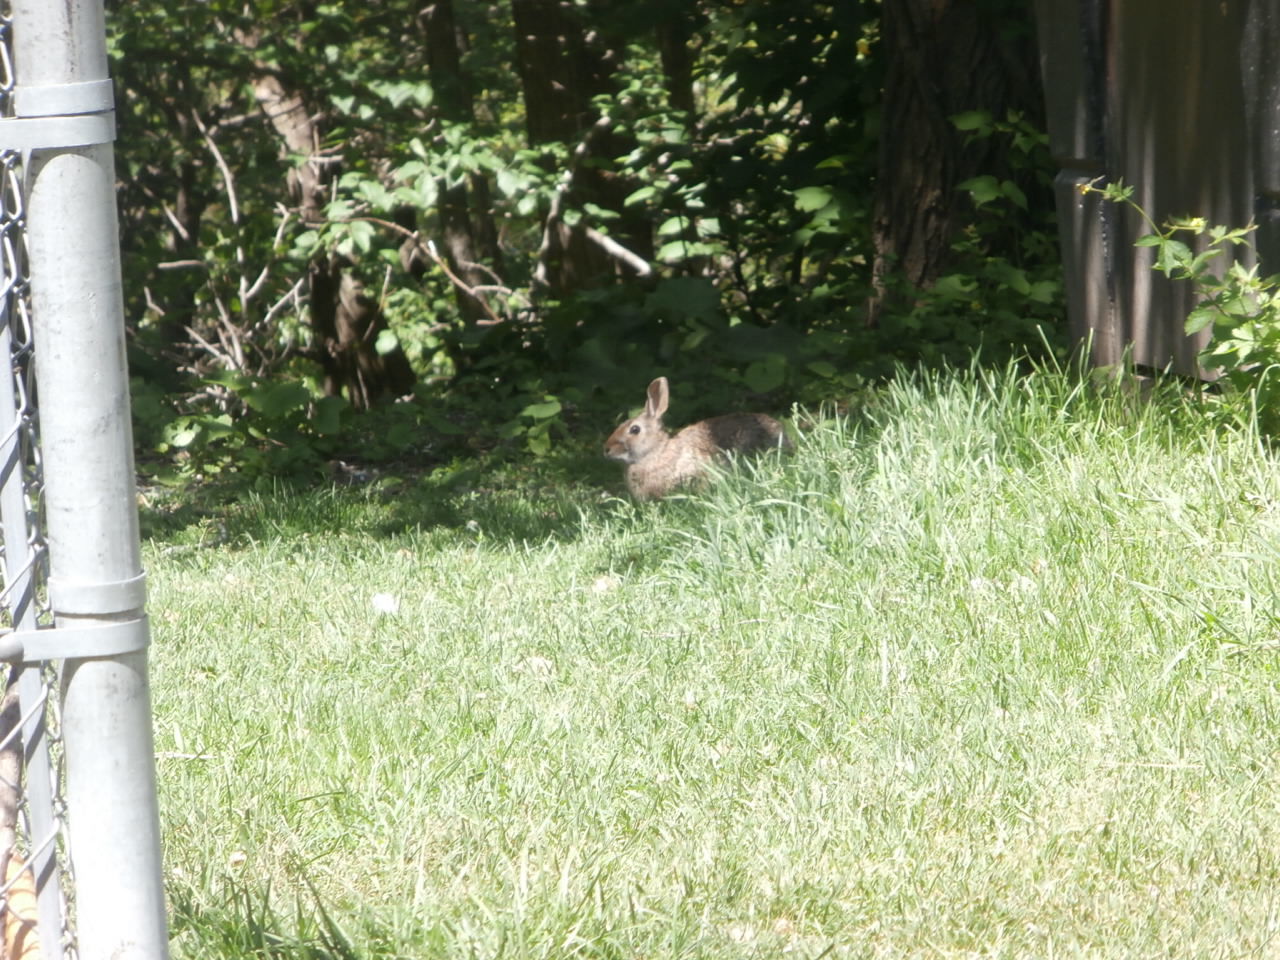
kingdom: Animalia
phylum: Chordata
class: Mammalia
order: Lagomorpha
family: Leporidae
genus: Sylvilagus
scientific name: Sylvilagus floridanus
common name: Eastern cottontail
